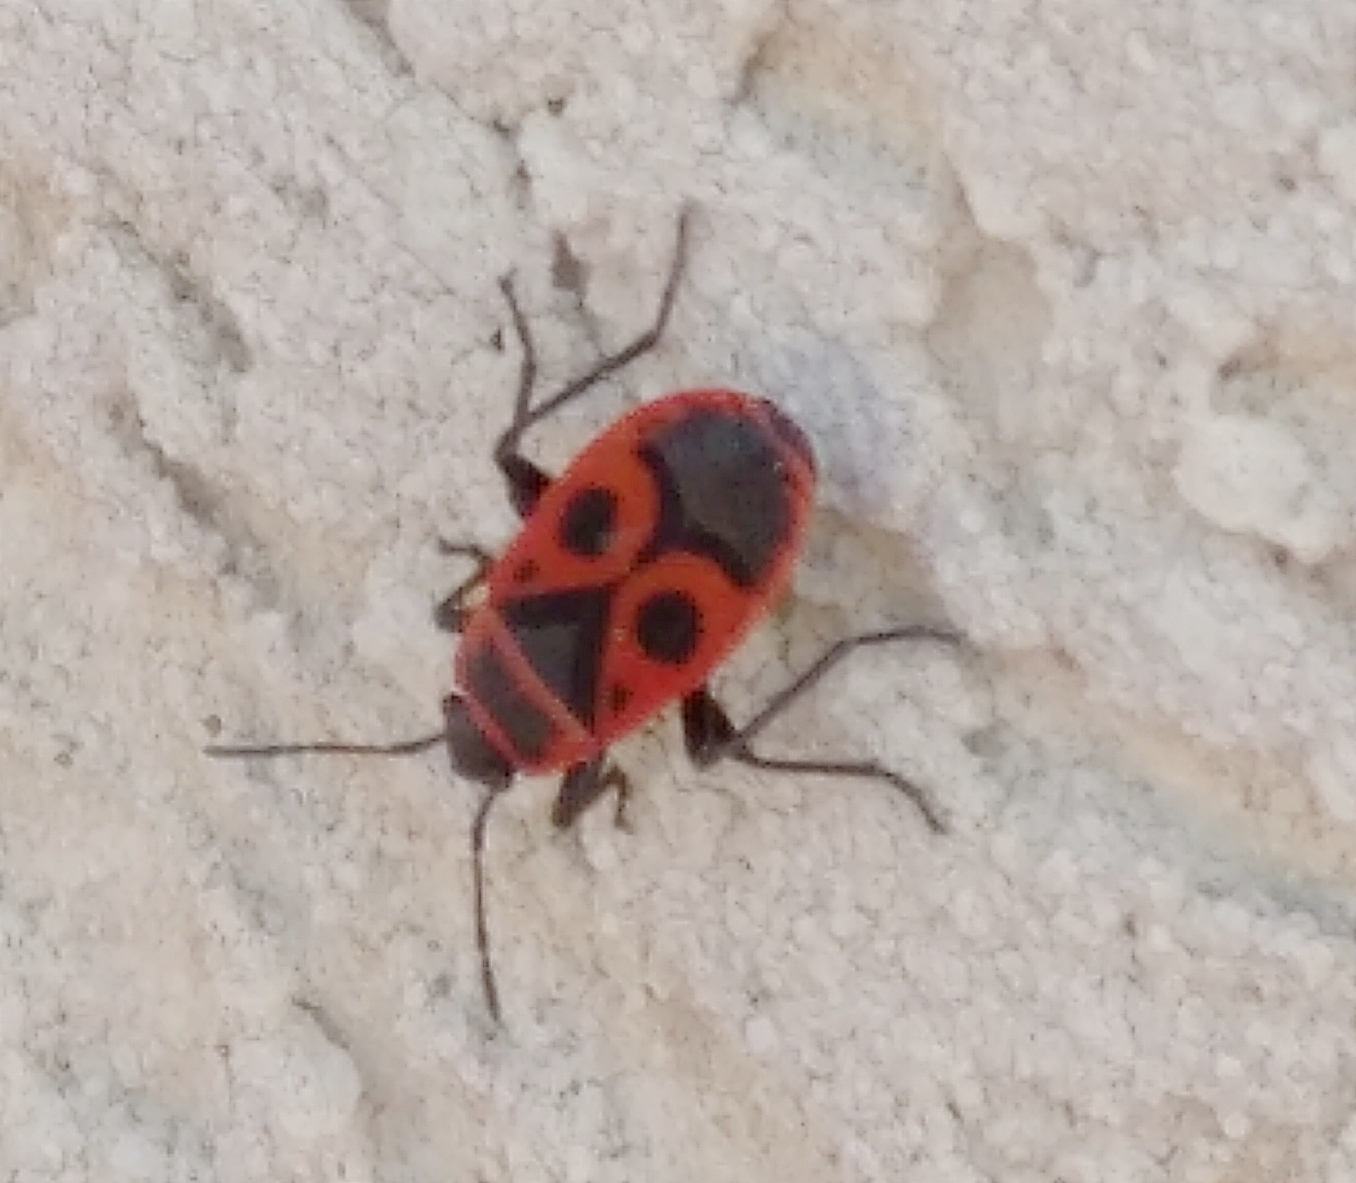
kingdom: Animalia
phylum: Arthropoda
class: Insecta
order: Hemiptera
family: Pyrrhocoridae
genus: Pyrrhocoris
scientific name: Pyrrhocoris apterus
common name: Firebug
